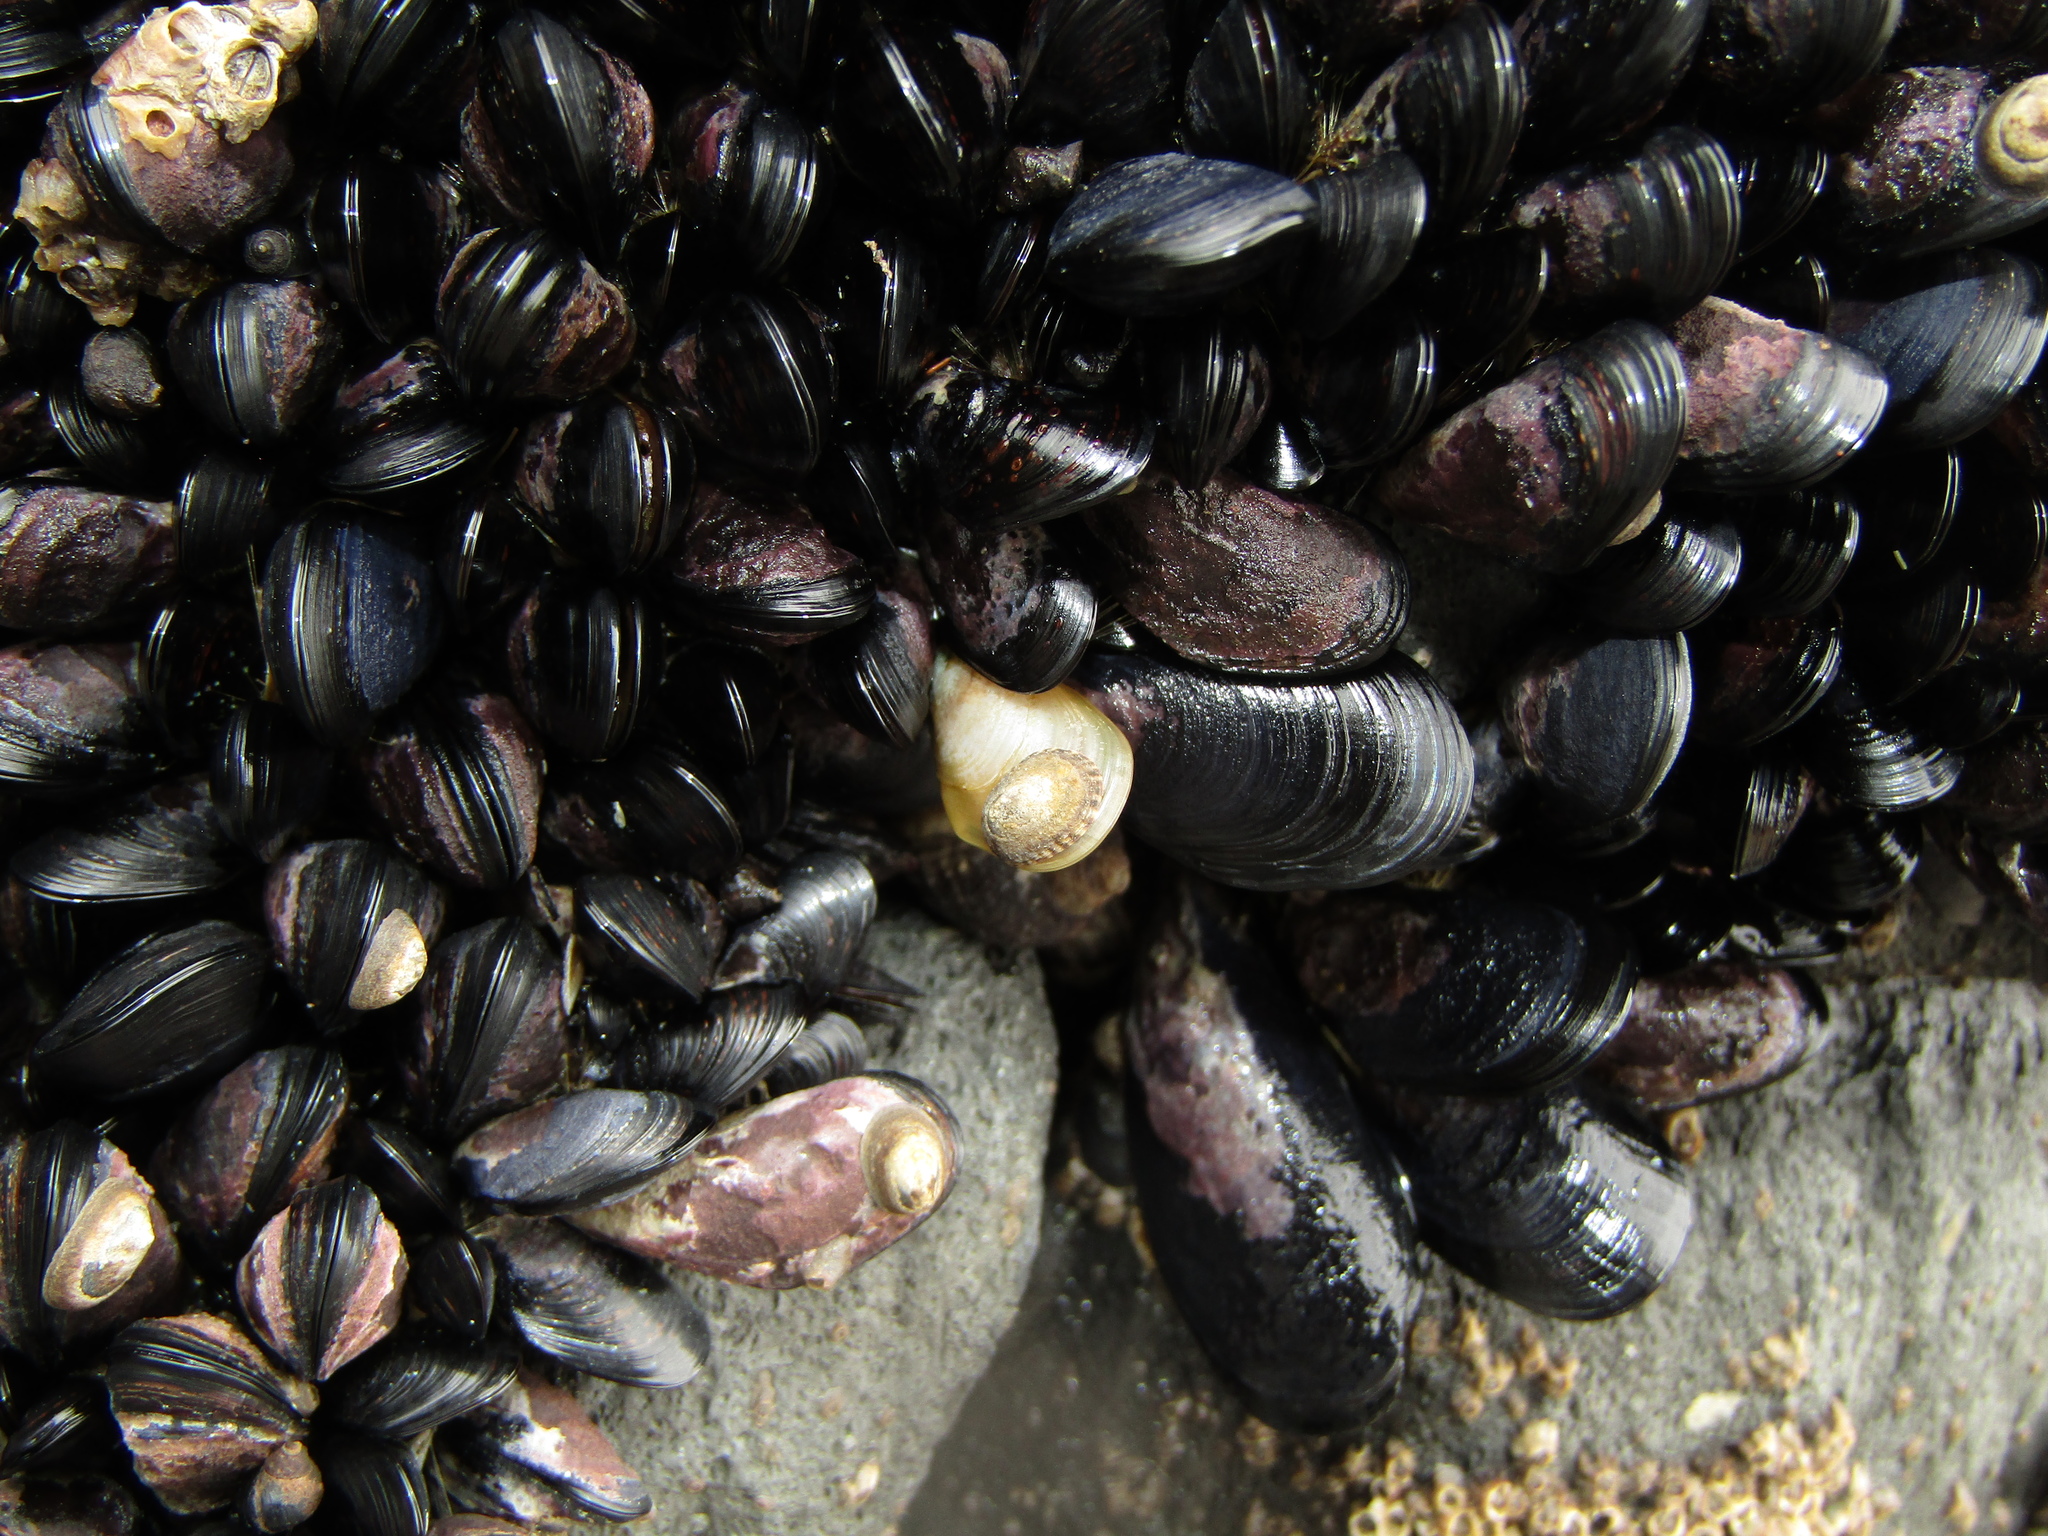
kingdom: Animalia
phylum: Mollusca
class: Bivalvia
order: Mytilida
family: Mytilidae
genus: Mytilus
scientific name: Mytilus planulatus
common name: Australian mussel
